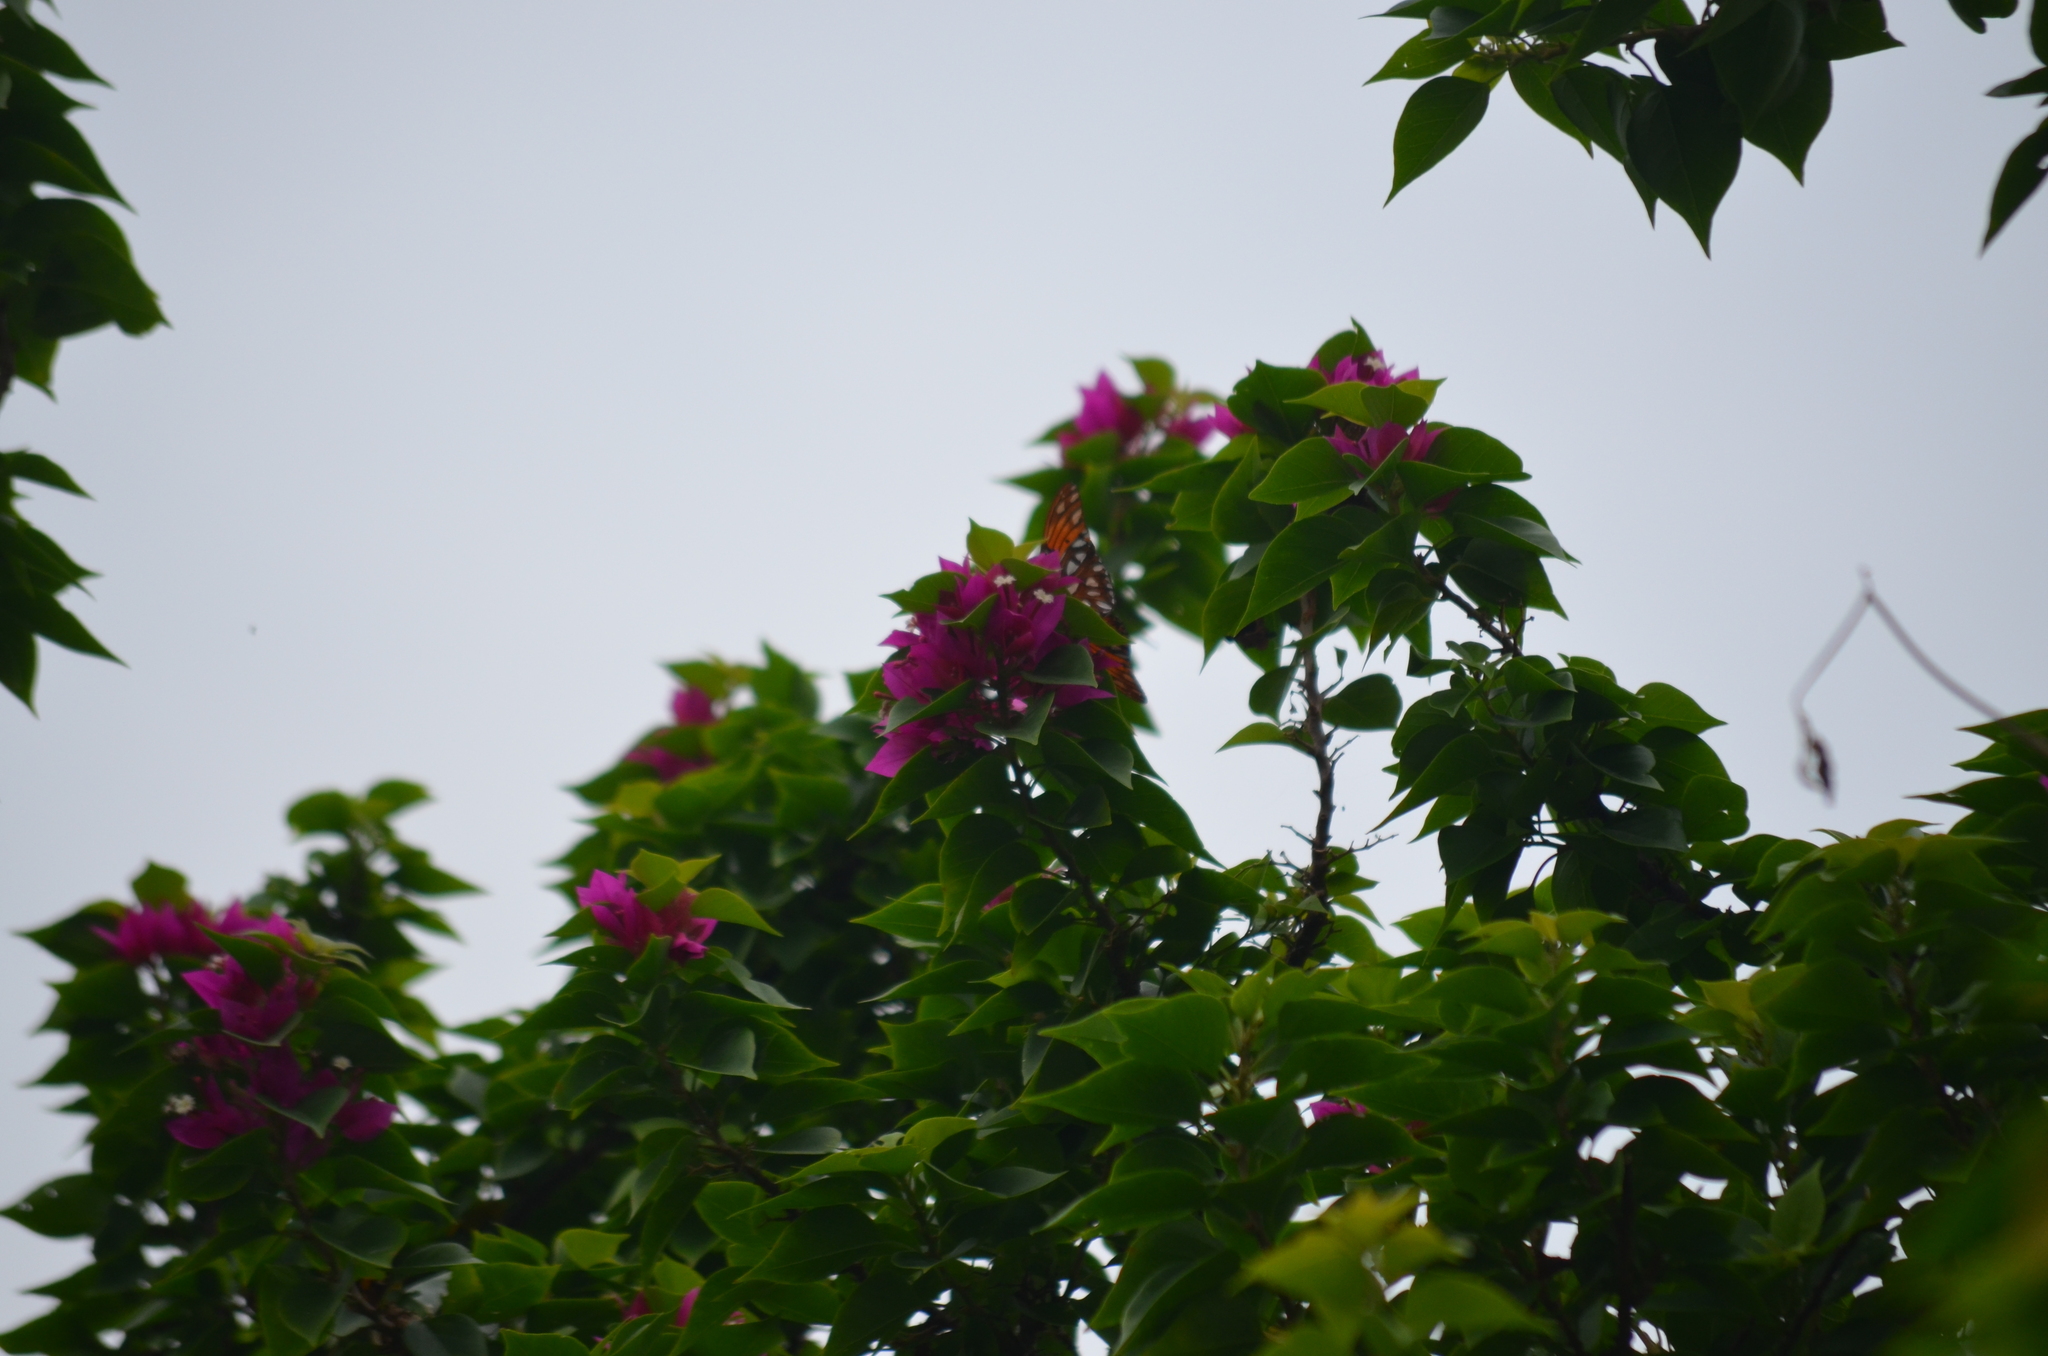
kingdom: Animalia
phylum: Arthropoda
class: Insecta
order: Lepidoptera
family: Nymphalidae
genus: Dione
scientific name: Dione vanillae
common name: Gulf fritillary
